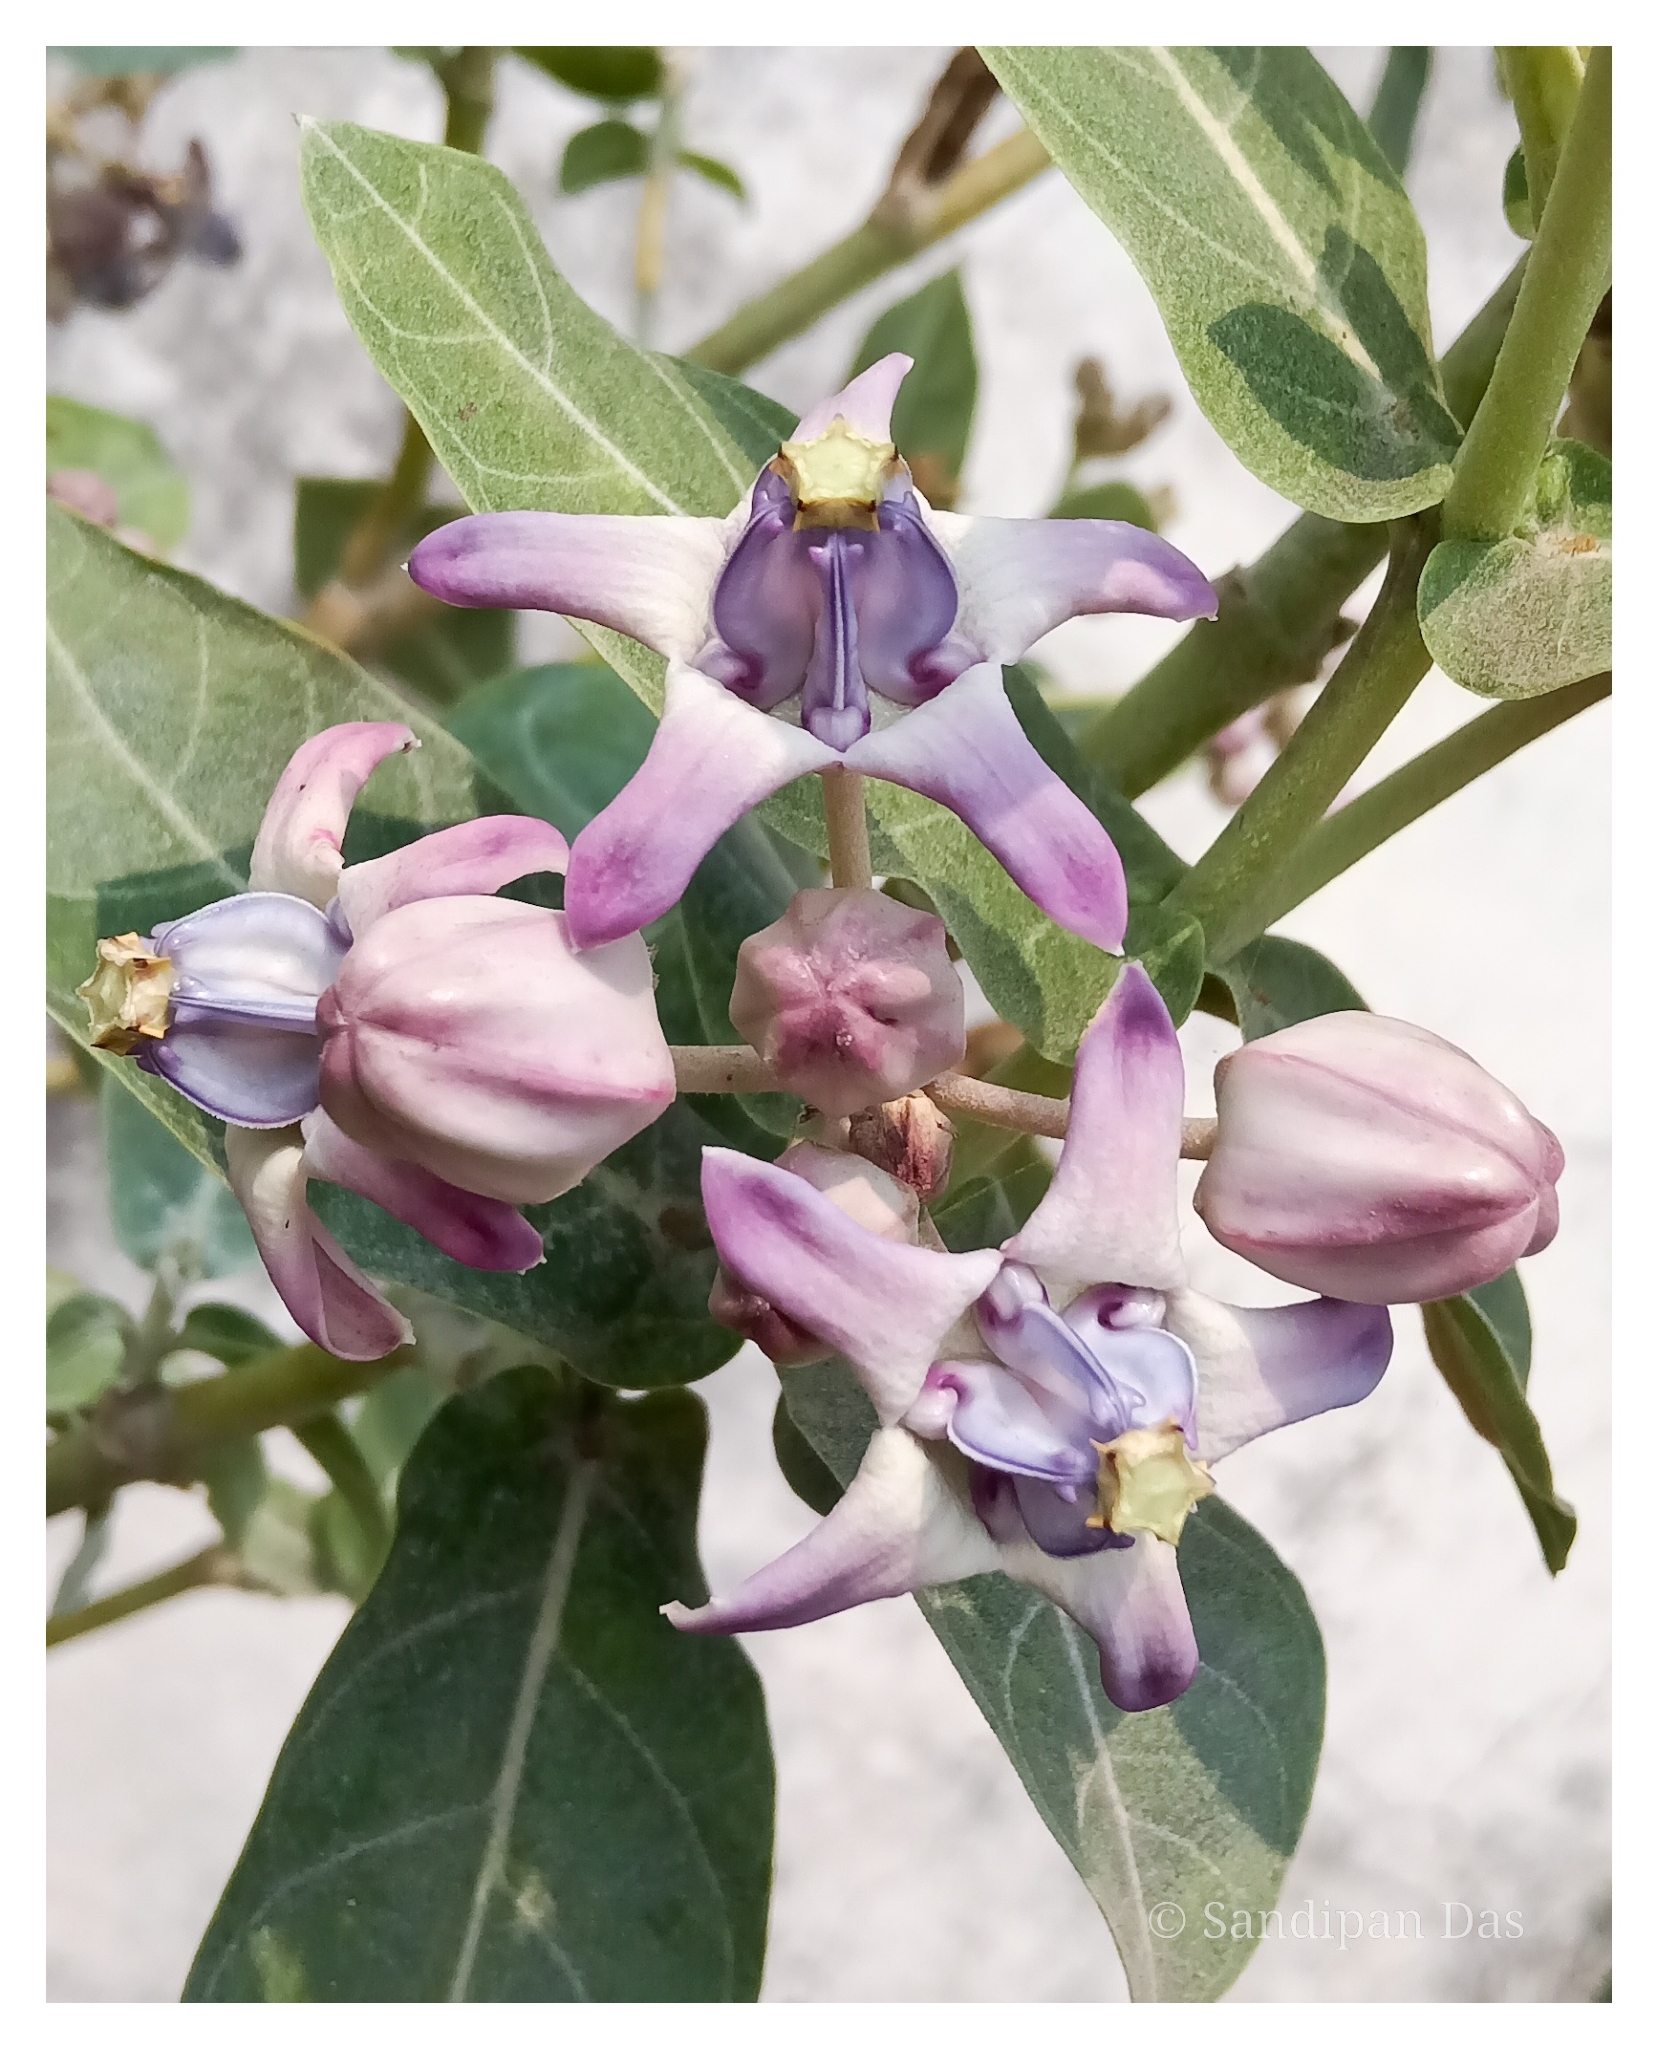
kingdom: Plantae
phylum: Tracheophyta
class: Magnoliopsida
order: Gentianales
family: Apocynaceae
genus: Calotropis
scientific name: Calotropis gigantea
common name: Crown flower
